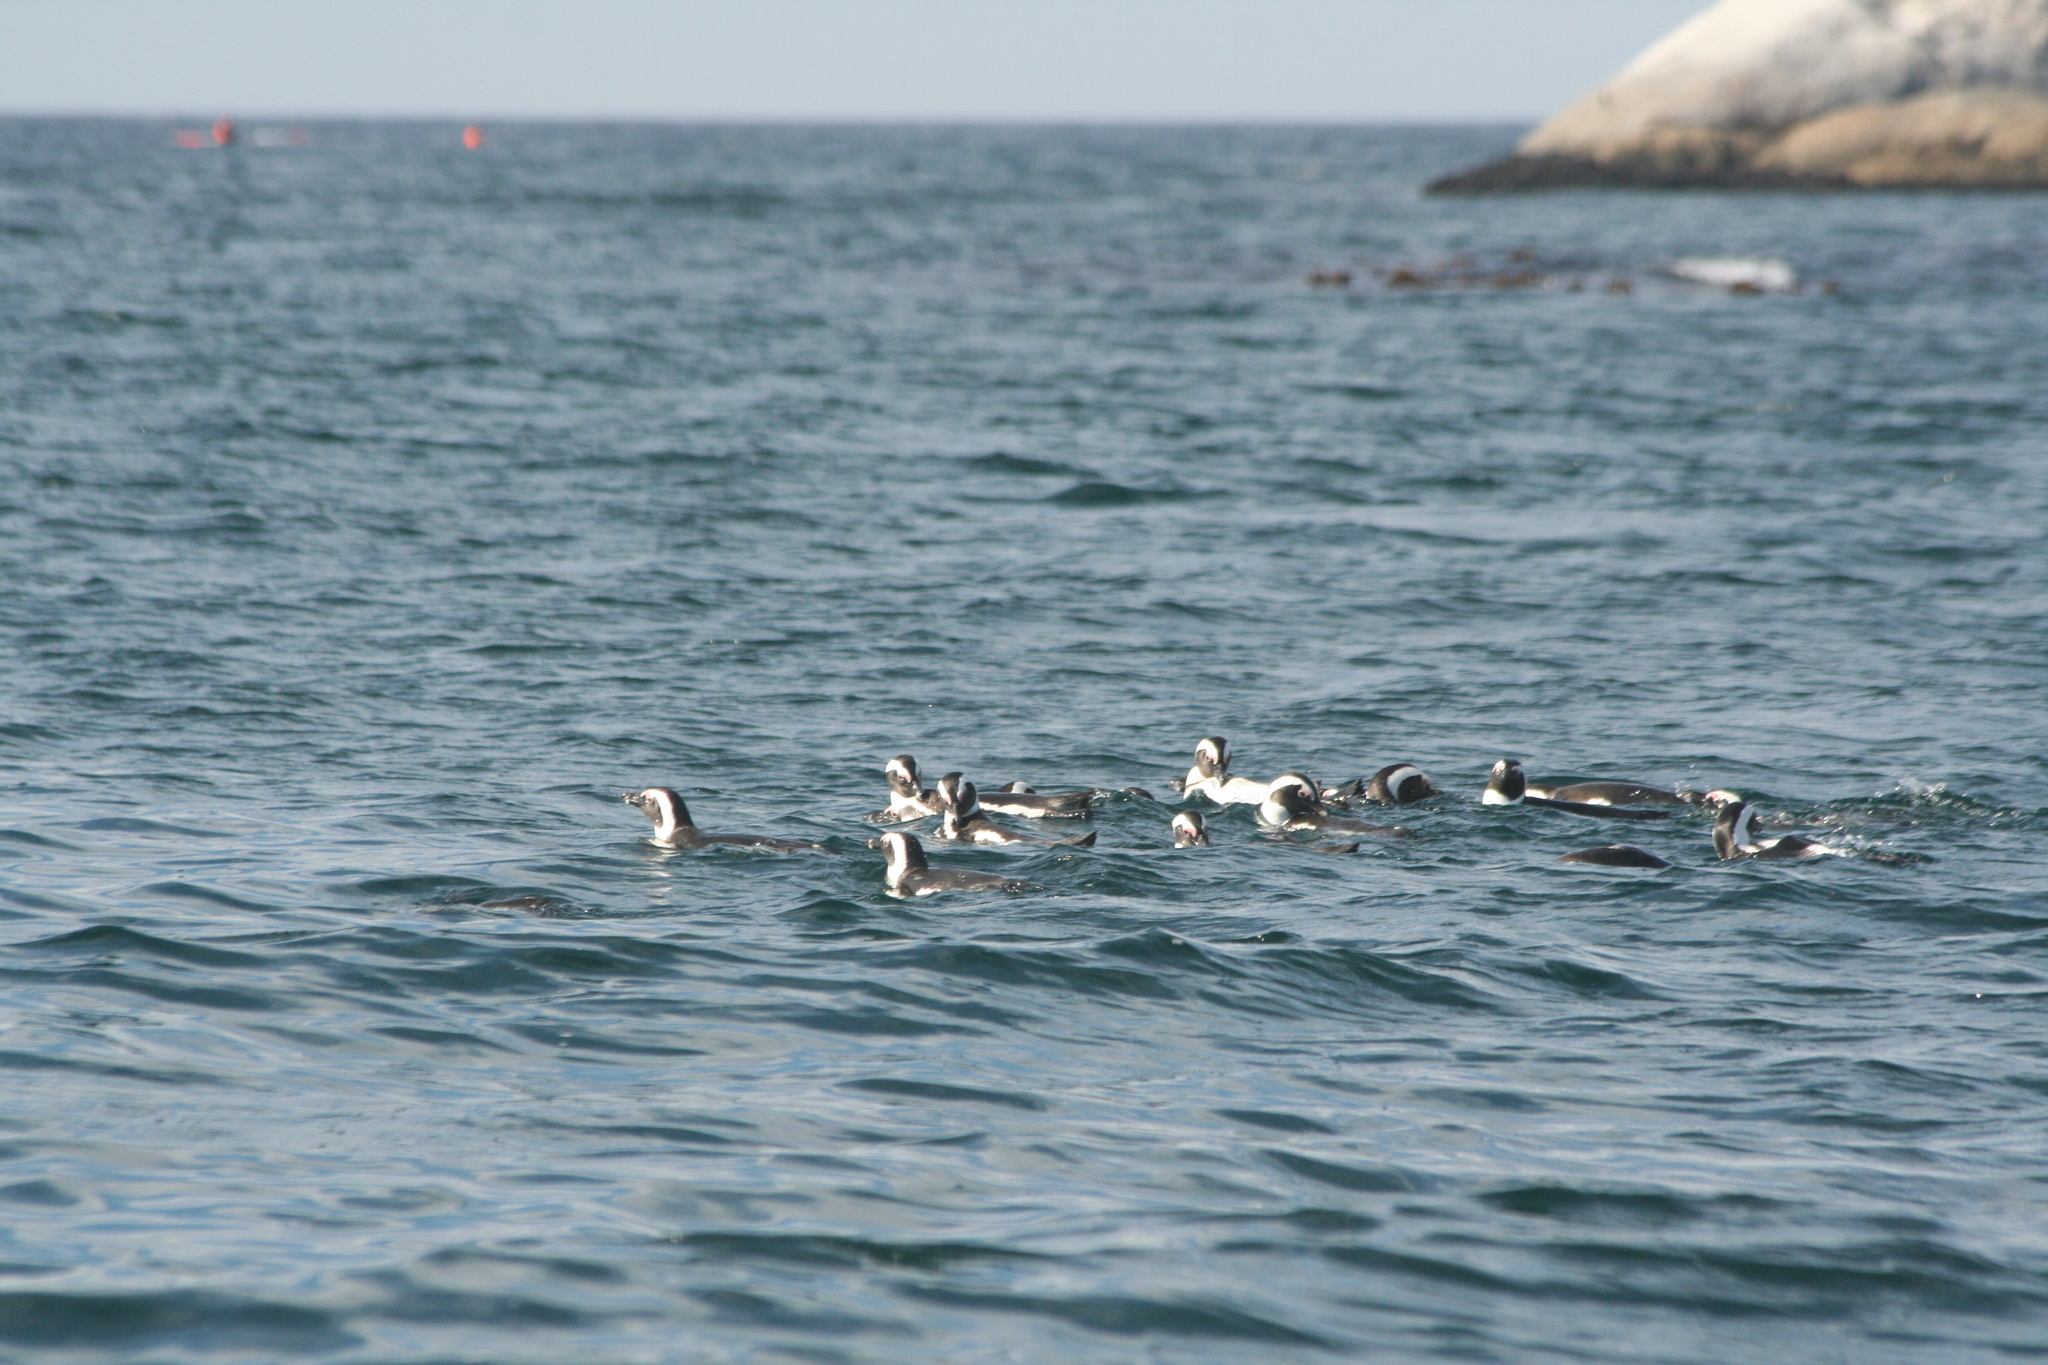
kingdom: Animalia
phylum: Chordata
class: Aves
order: Sphenisciformes
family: Spheniscidae
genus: Spheniscus
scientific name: Spheniscus demersus
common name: African penguin
